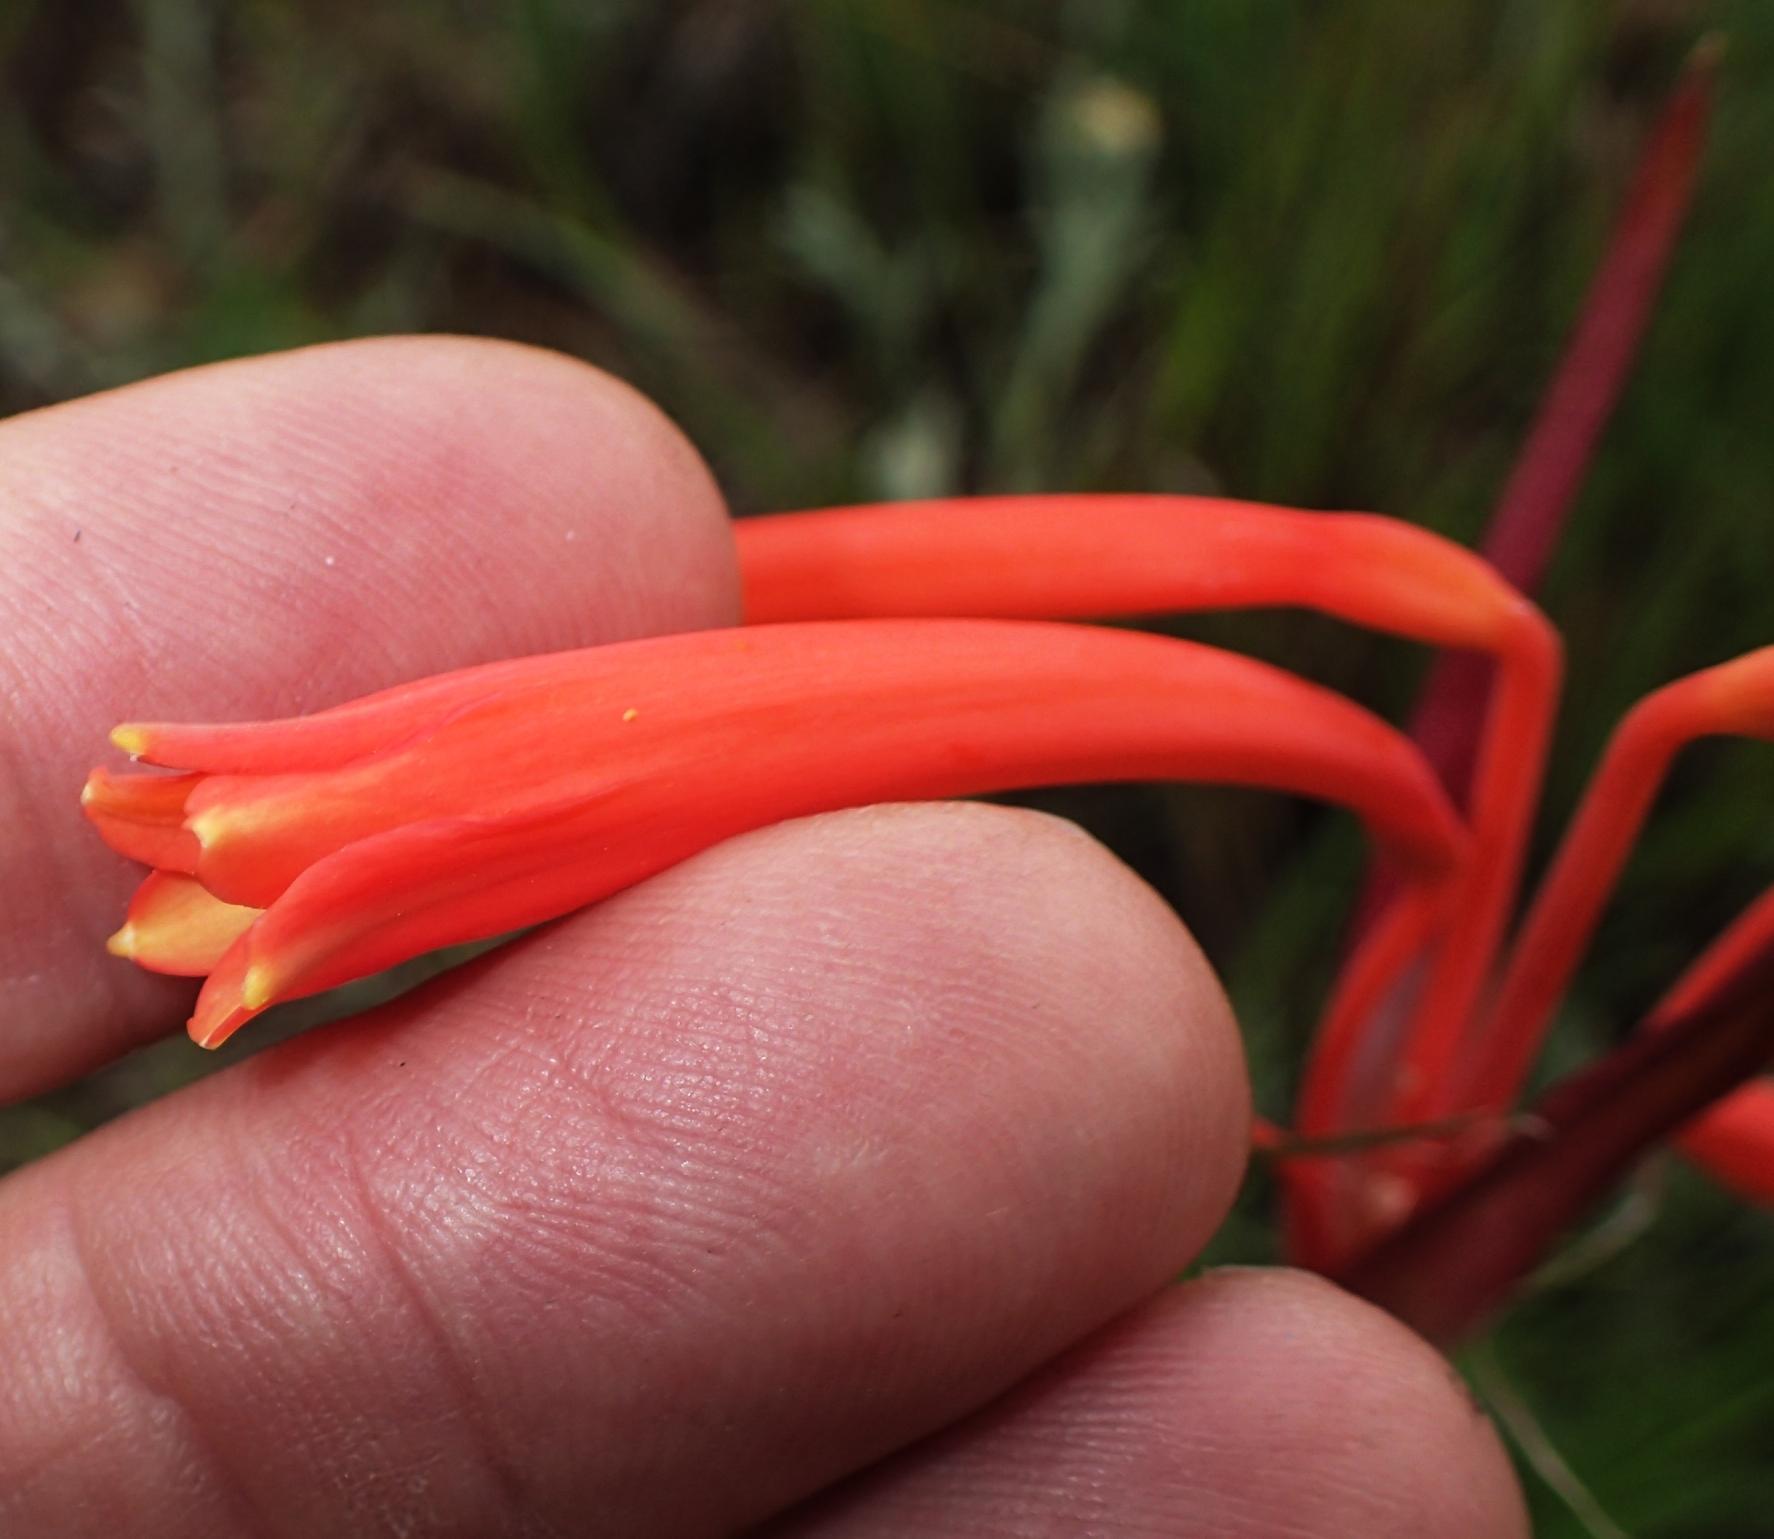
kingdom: Plantae
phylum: Tracheophyta
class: Liliopsida
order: Asparagales
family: Amaryllidaceae
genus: Cyrtanthus
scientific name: Cyrtanthus tuckii
